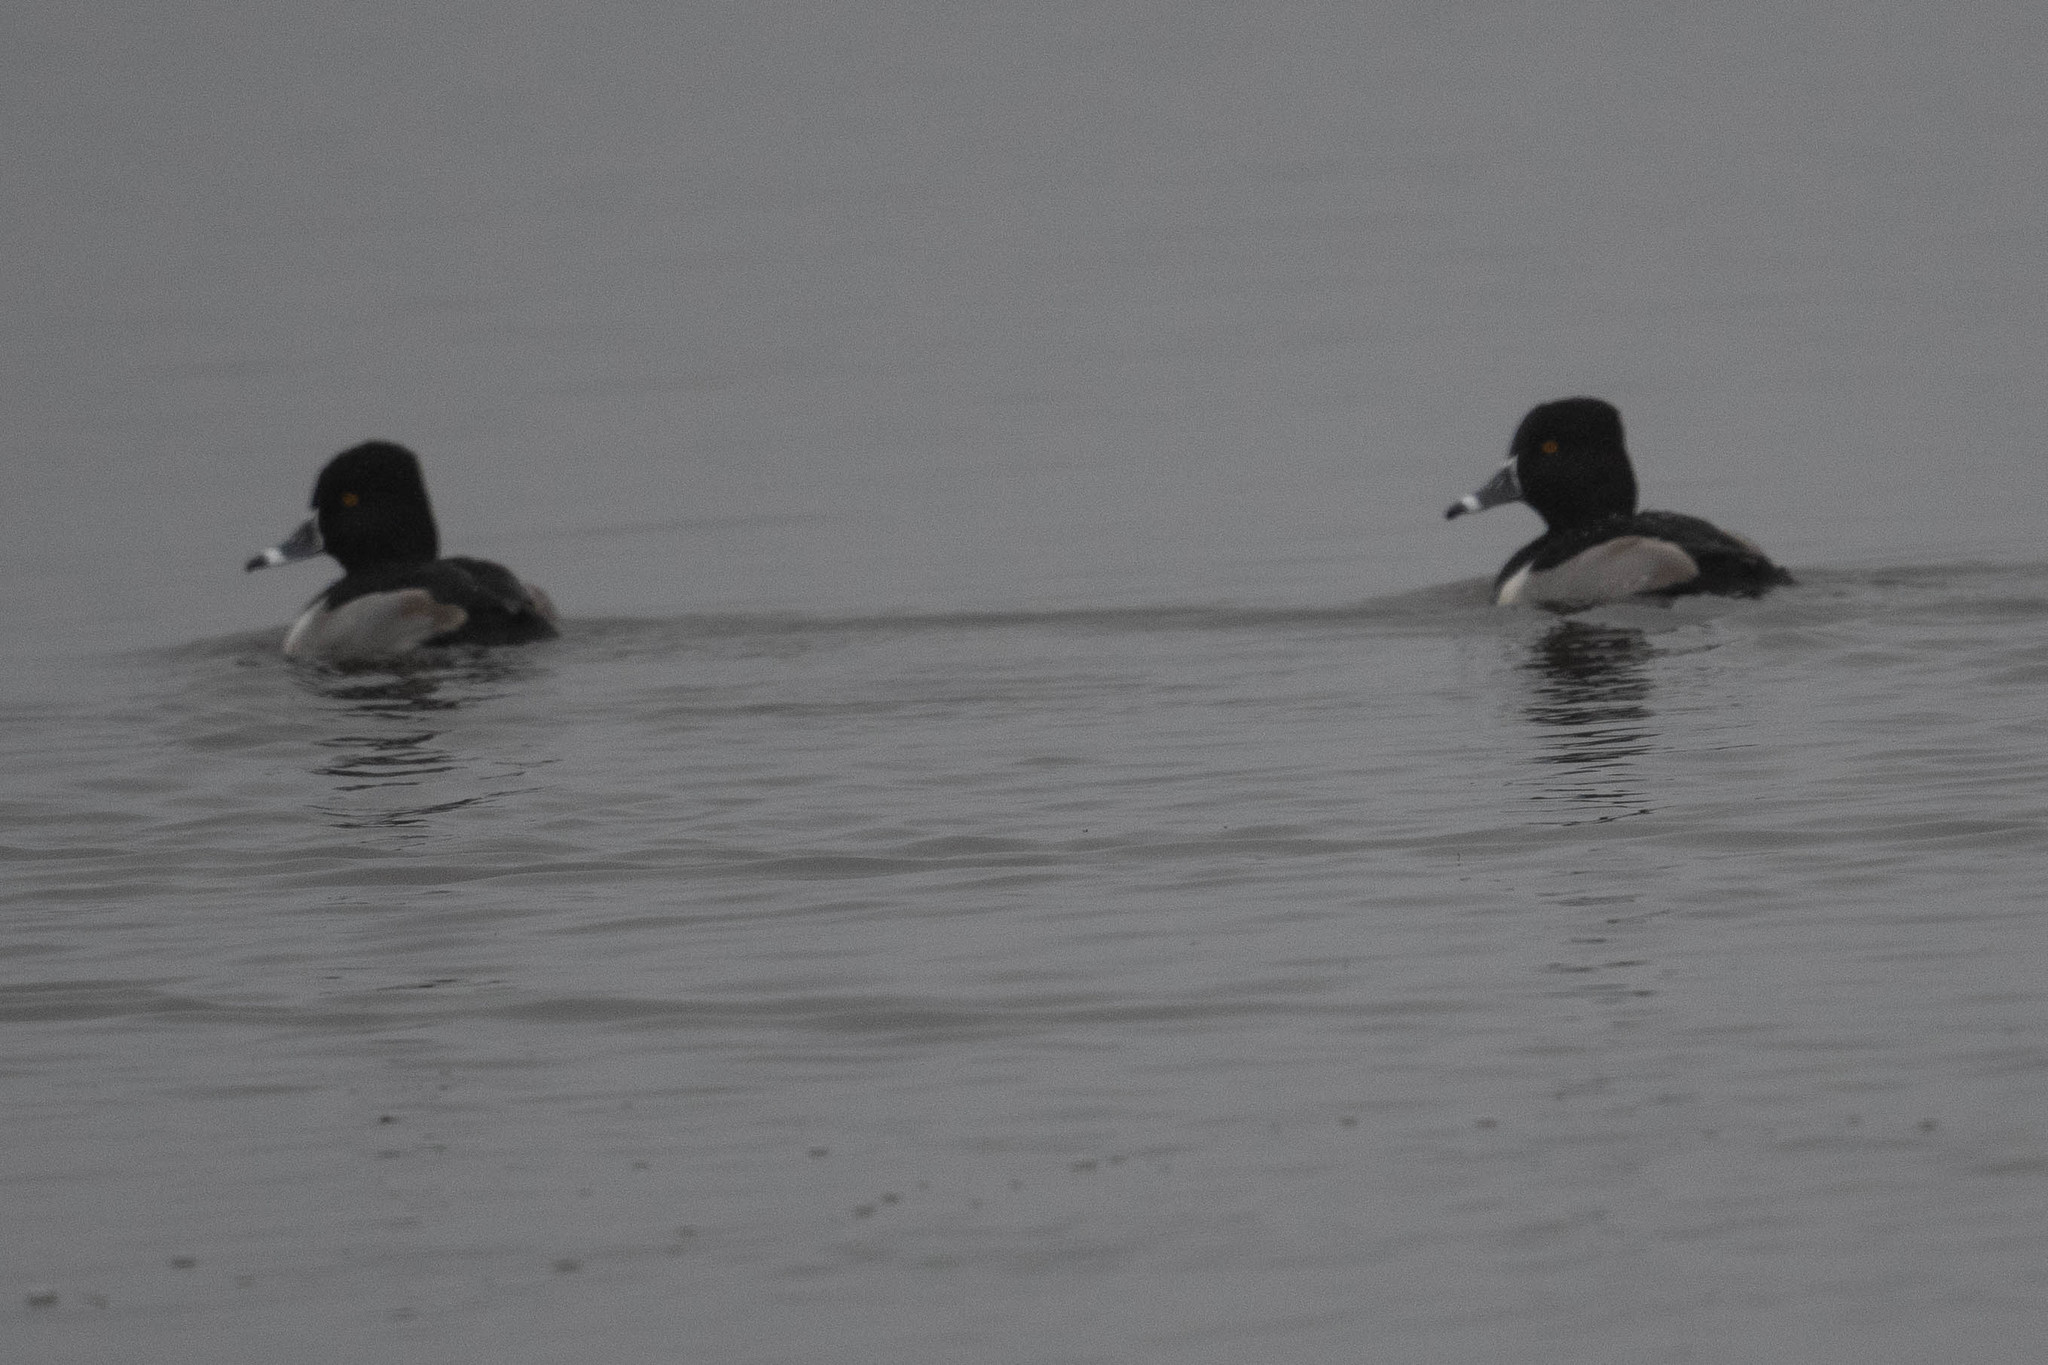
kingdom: Animalia
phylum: Chordata
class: Aves
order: Anseriformes
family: Anatidae
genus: Aythya
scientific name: Aythya collaris
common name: Ring-necked duck
